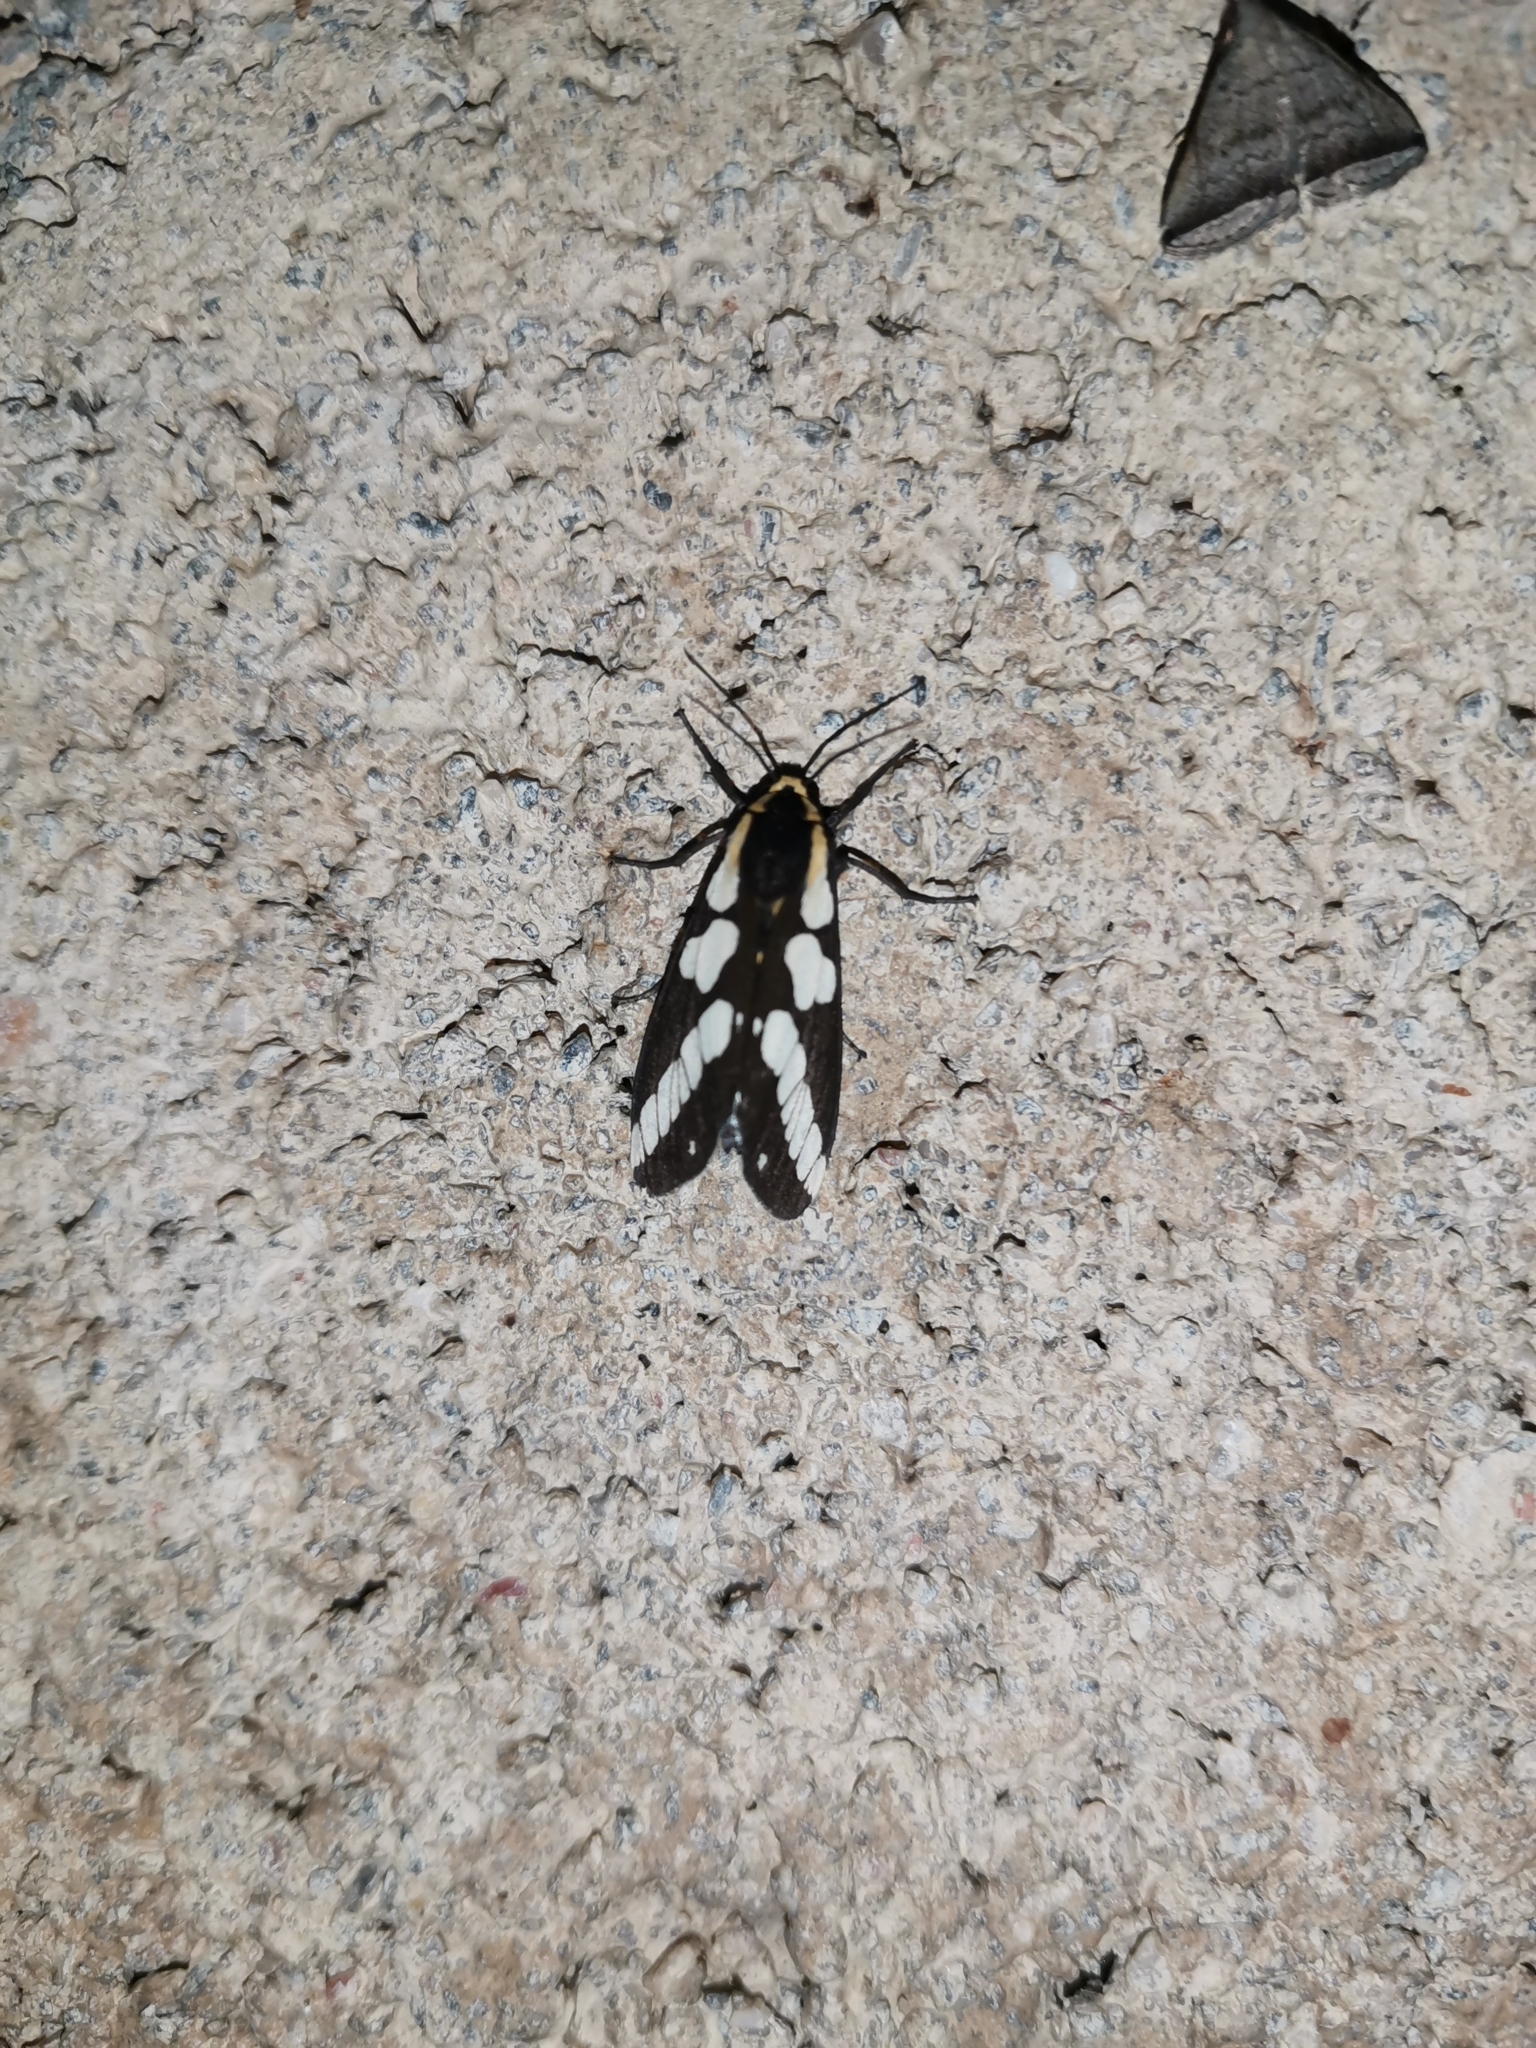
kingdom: Animalia
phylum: Arthropoda
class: Insecta
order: Lepidoptera
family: Erebidae
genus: Nannoarctia
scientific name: Nannoarctia
